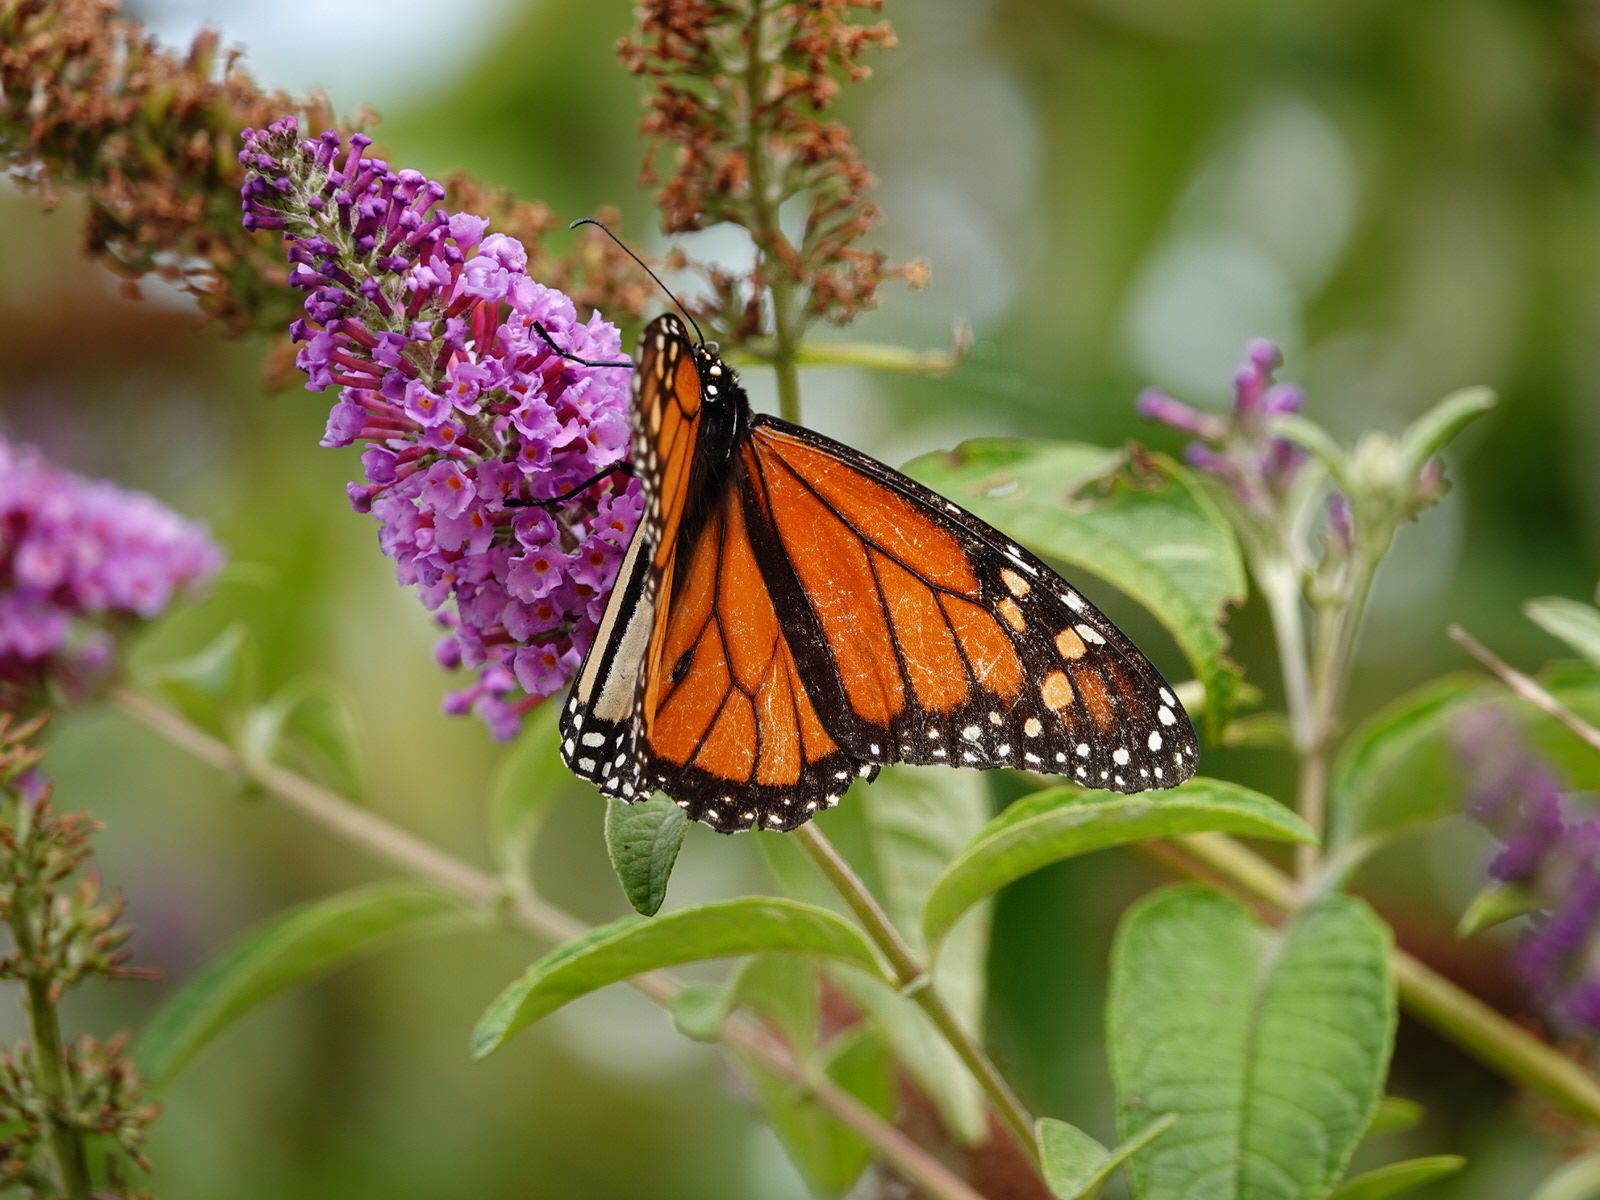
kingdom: Animalia
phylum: Arthropoda
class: Insecta
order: Lepidoptera
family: Nymphalidae
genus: Danaus
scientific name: Danaus plexippus
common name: Monarch
